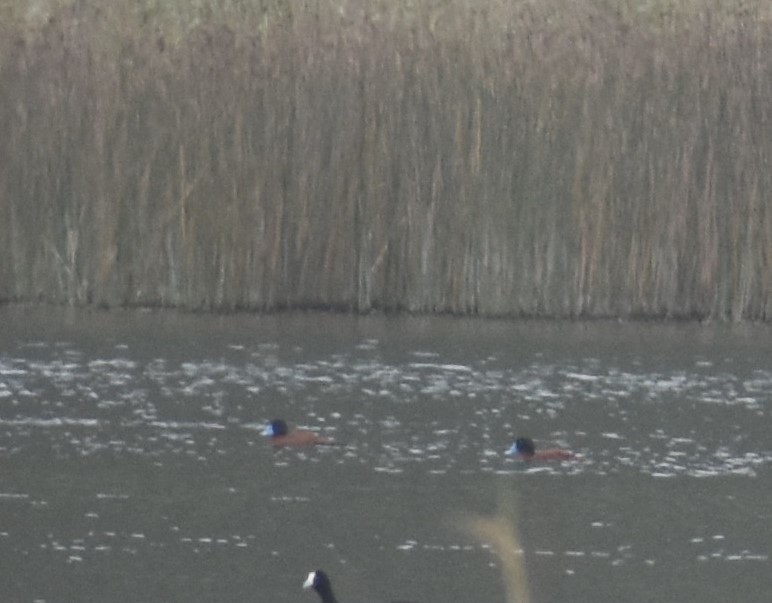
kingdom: Animalia
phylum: Chordata
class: Aves
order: Anseriformes
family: Anatidae
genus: Oxyura
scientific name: Oxyura maccoa
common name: Maccoa duck
